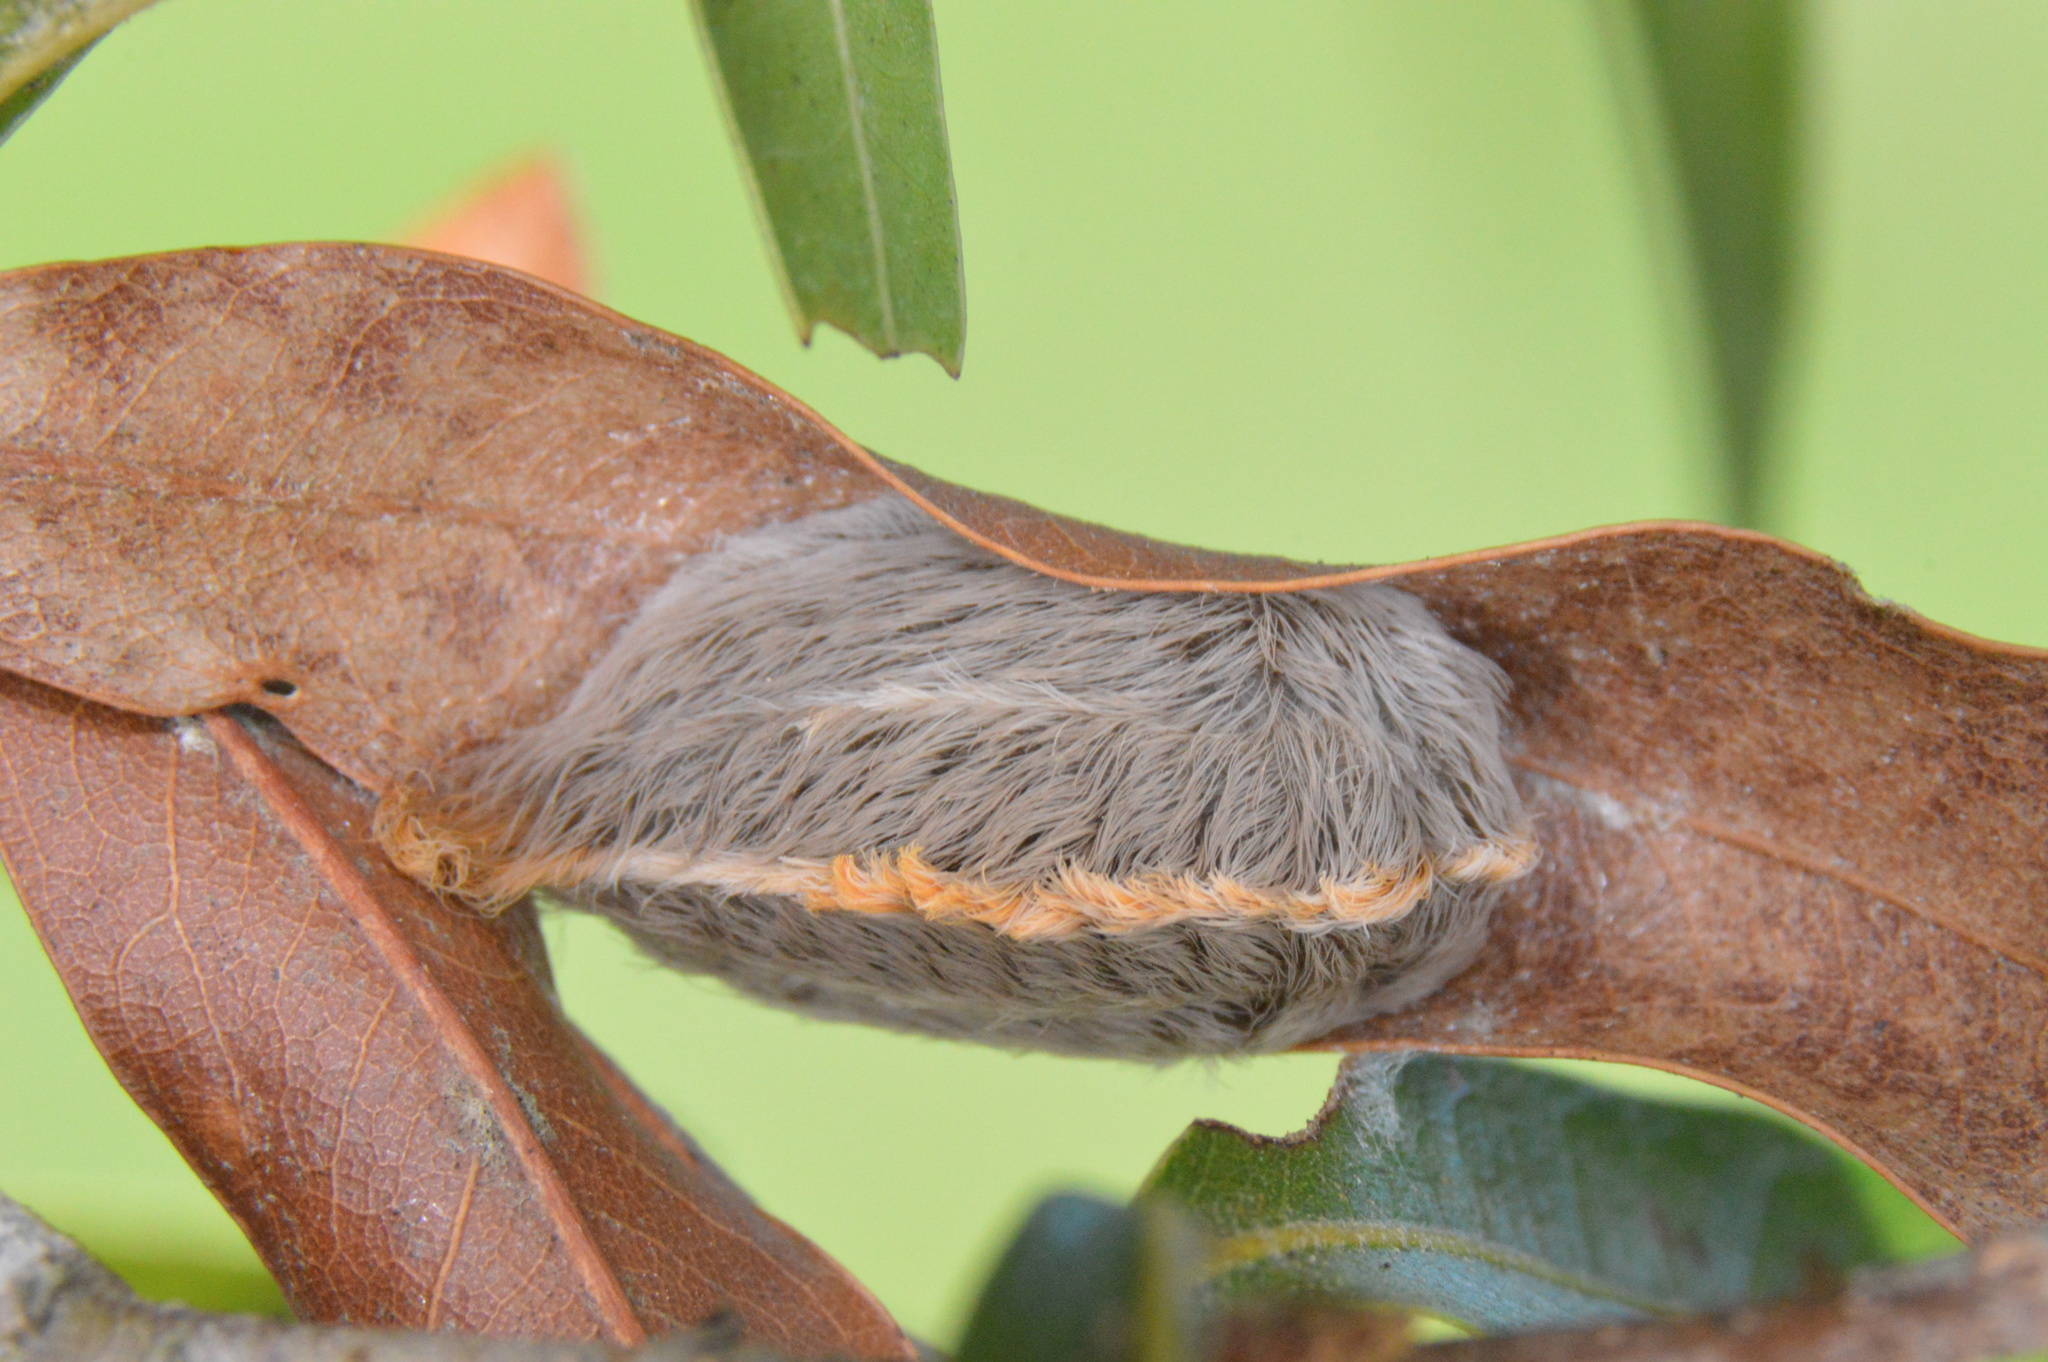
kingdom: Animalia
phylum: Arthropoda
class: Insecta
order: Lepidoptera
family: Megalopygidae
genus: Megalopyge
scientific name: Megalopyge opercularis
